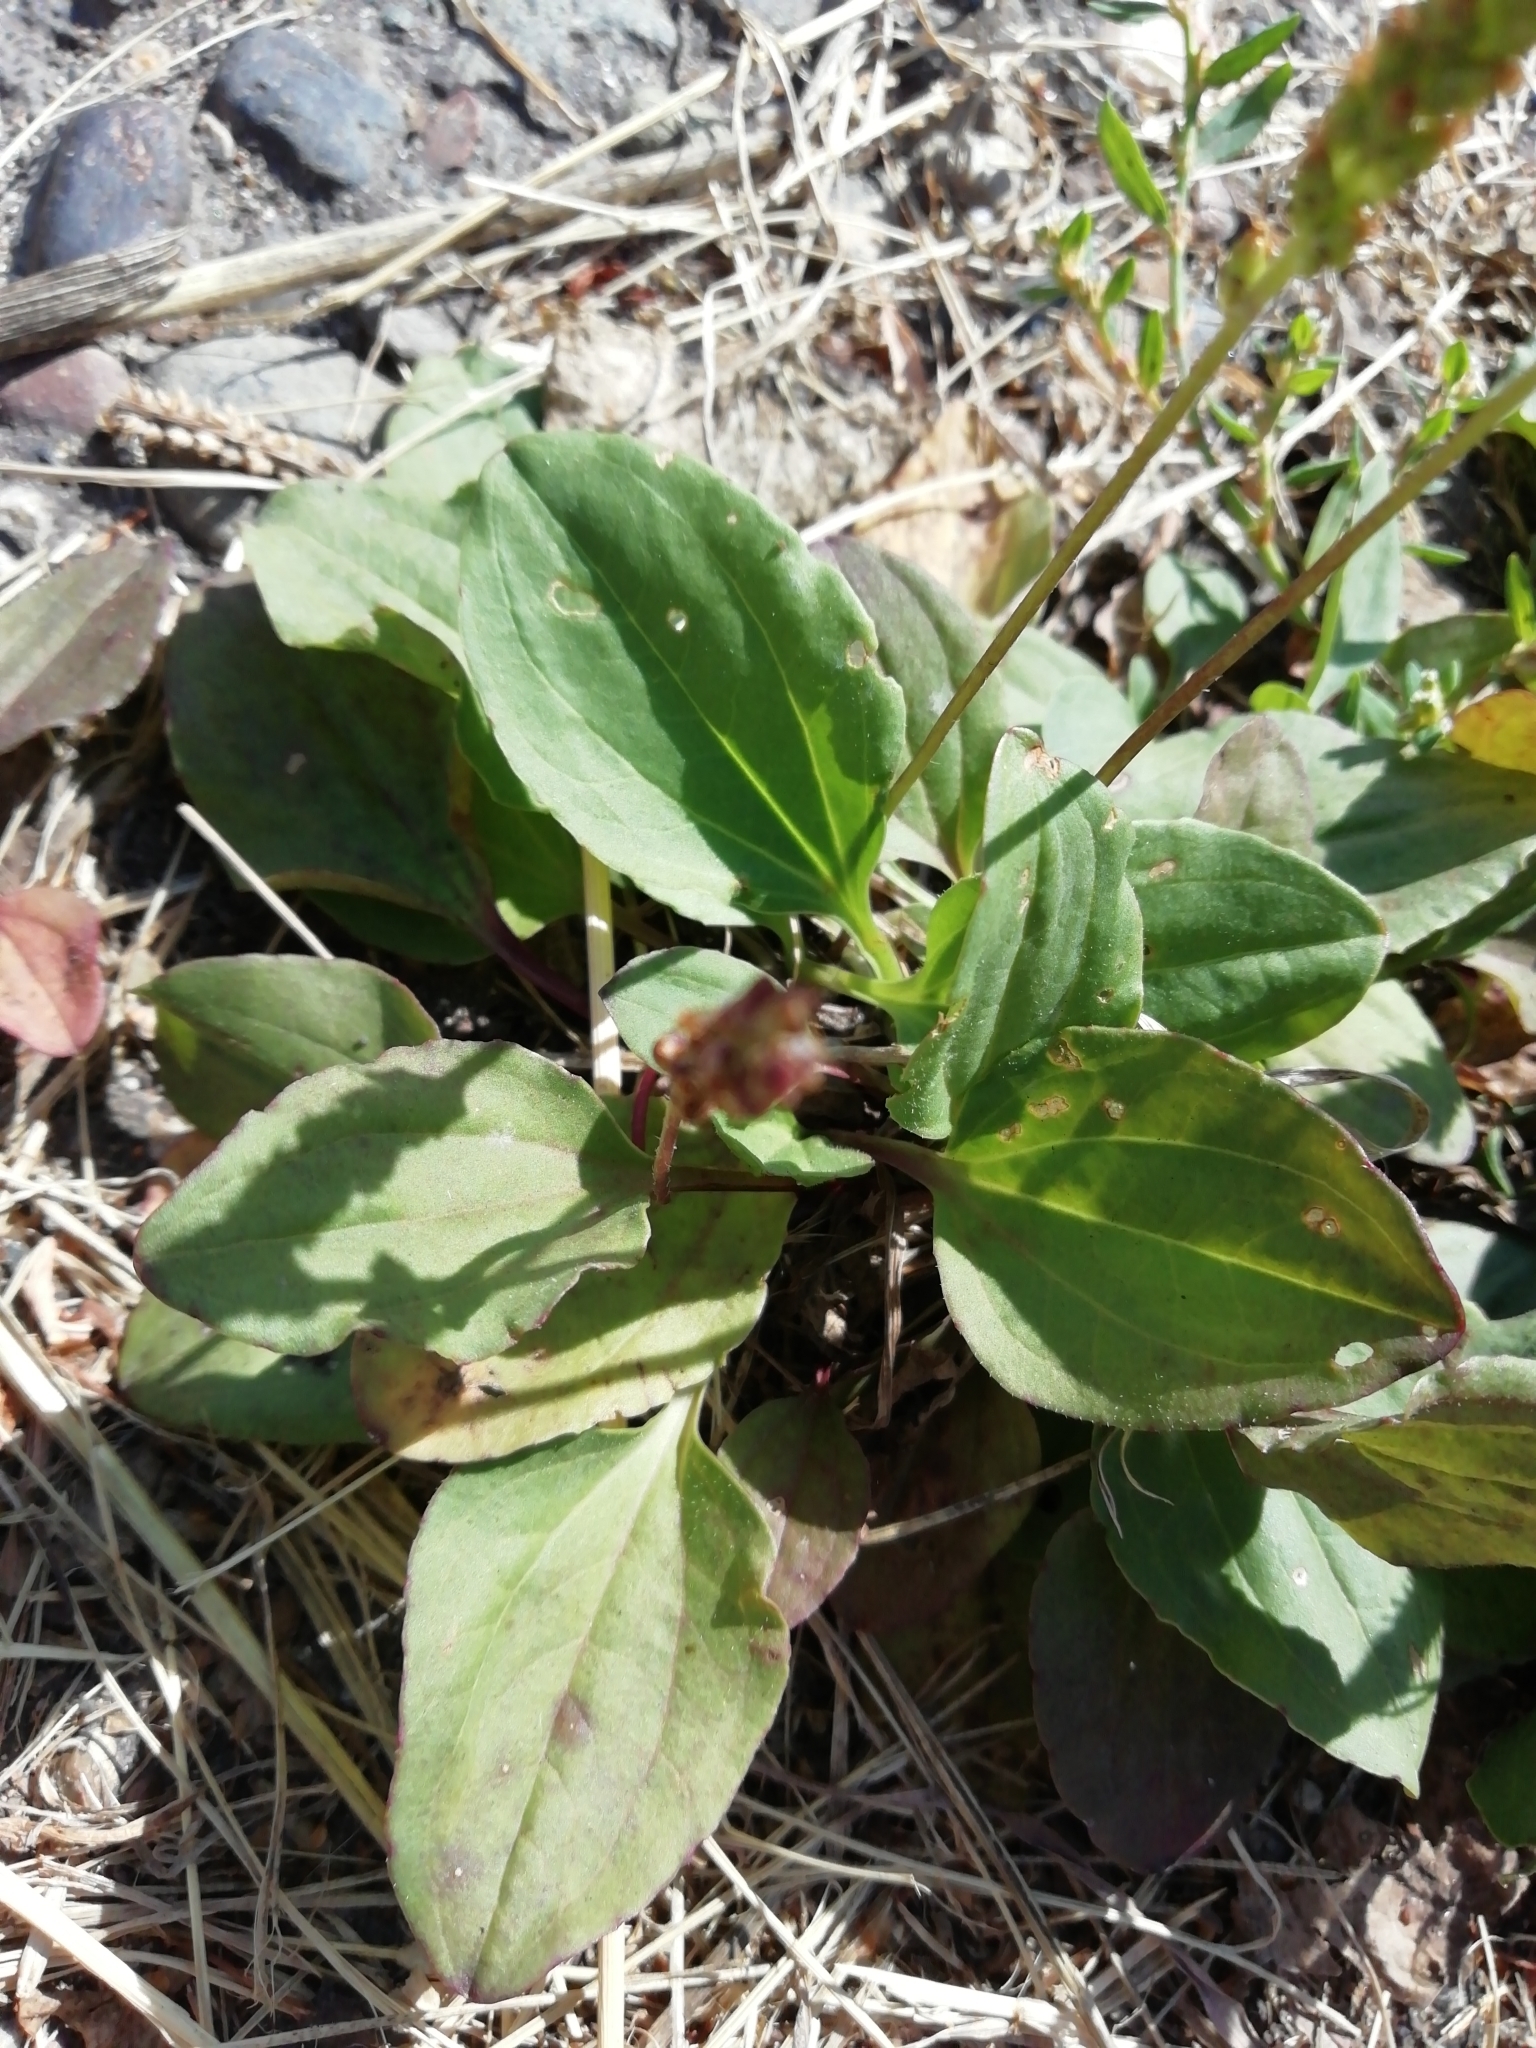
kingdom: Plantae
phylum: Tracheophyta
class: Magnoliopsida
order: Lamiales
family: Plantaginaceae
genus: Plantago
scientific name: Plantago major
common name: Common plantain
